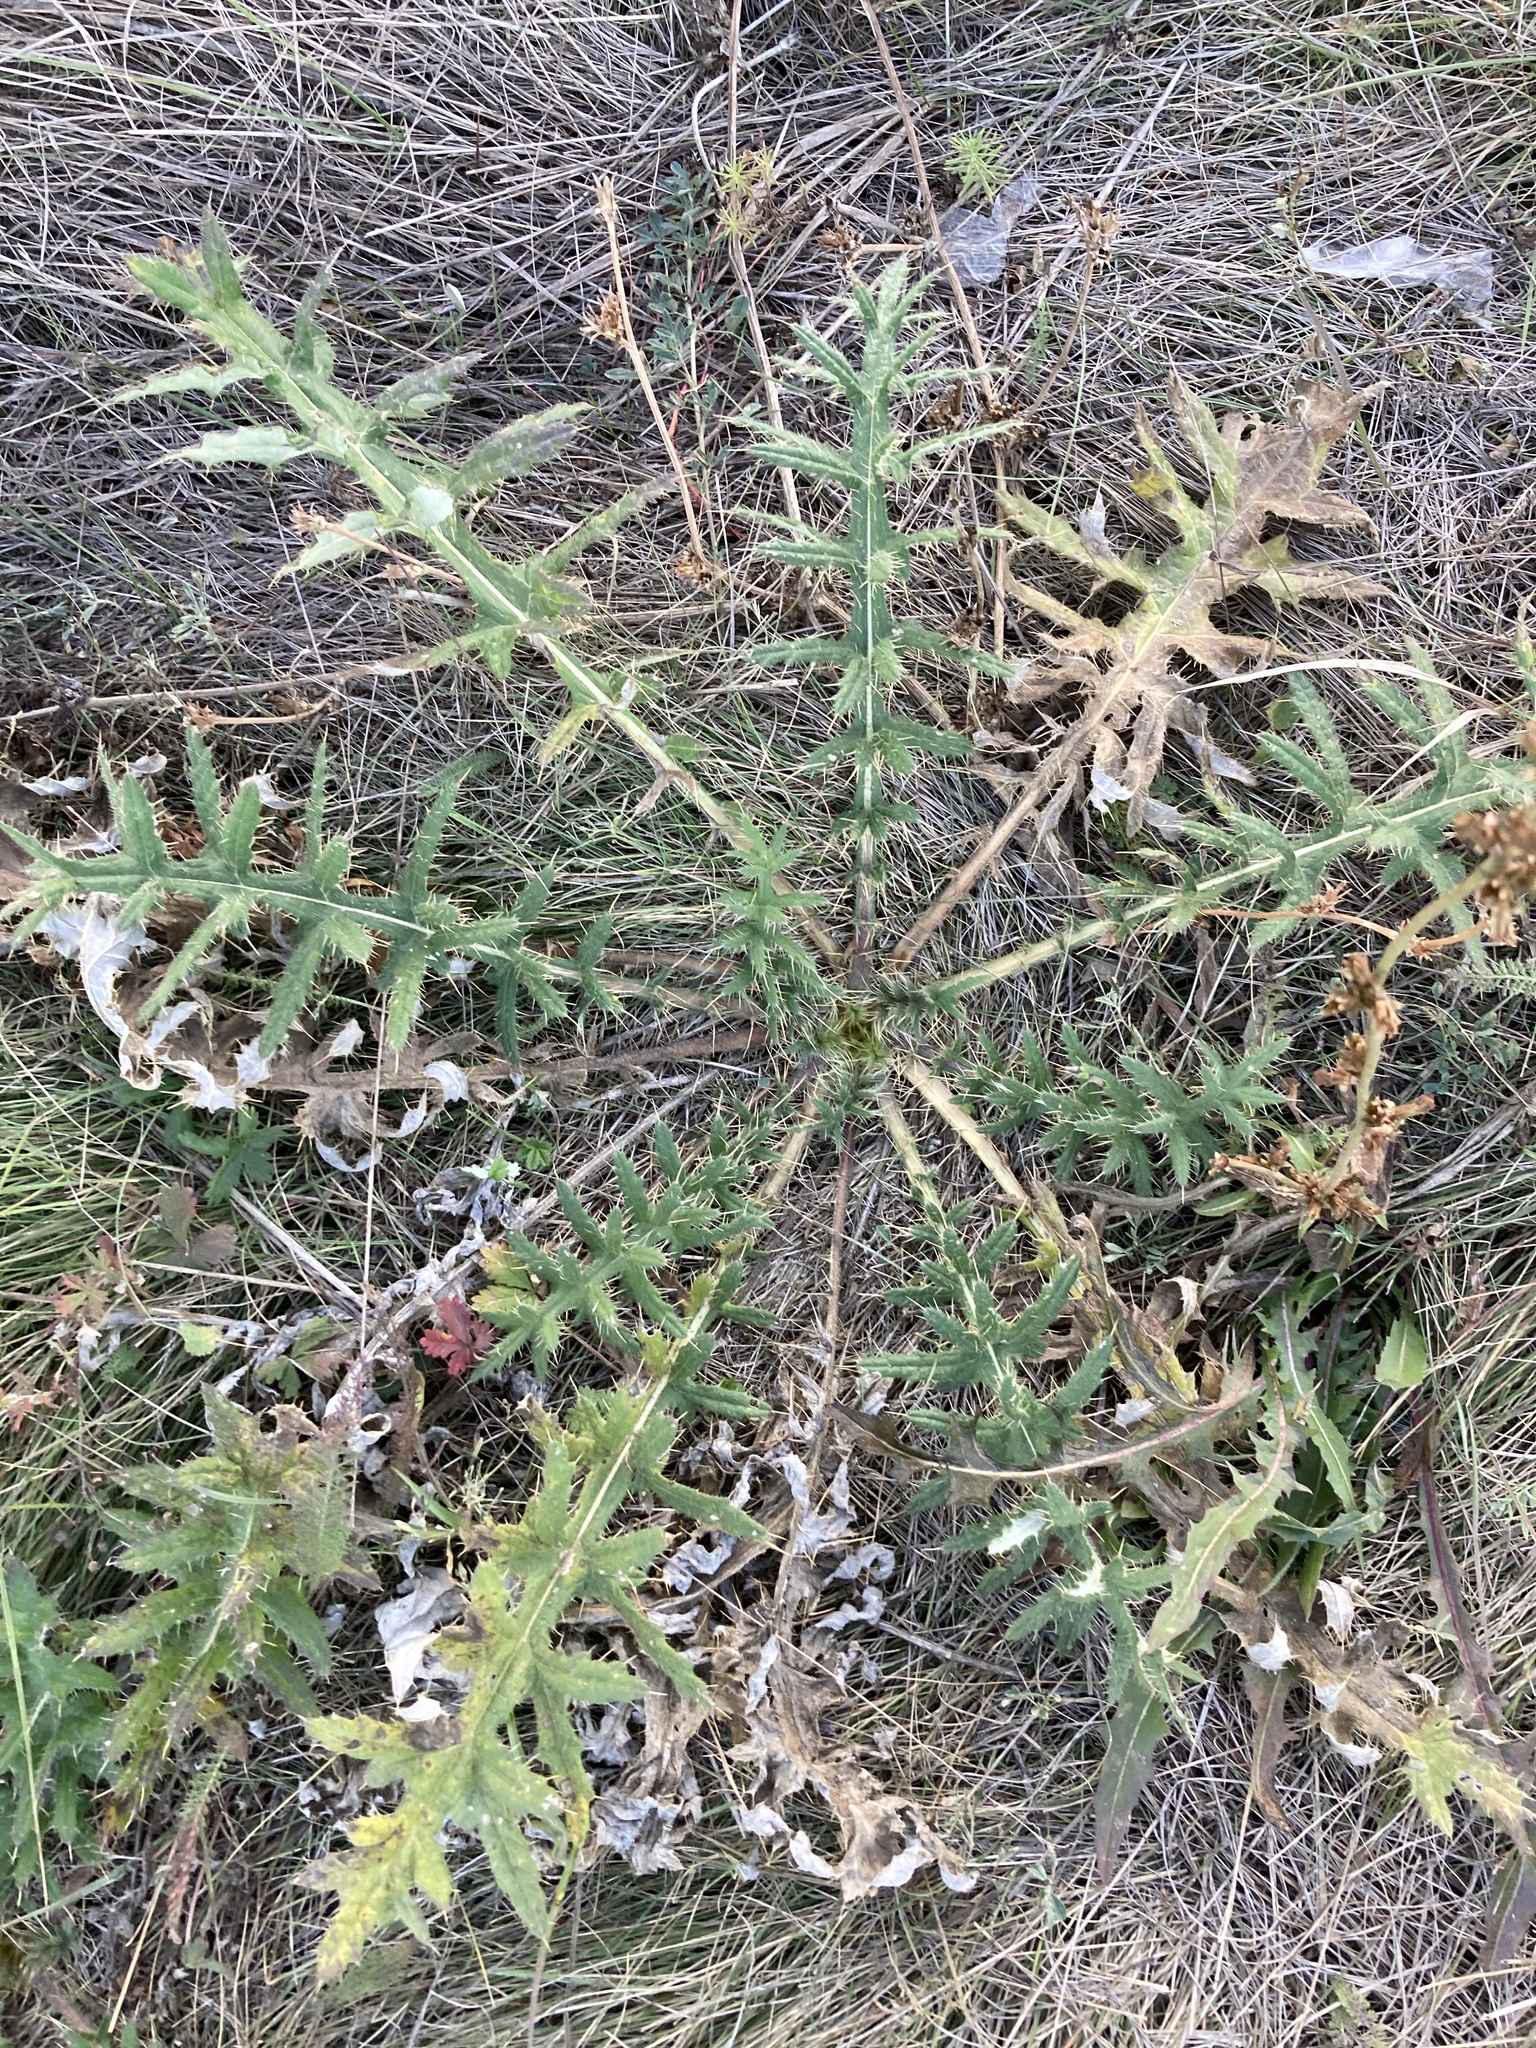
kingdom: Plantae
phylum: Tracheophyta
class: Magnoliopsida
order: Asterales
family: Asteraceae
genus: Cirsium
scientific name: Cirsium serrulatum
